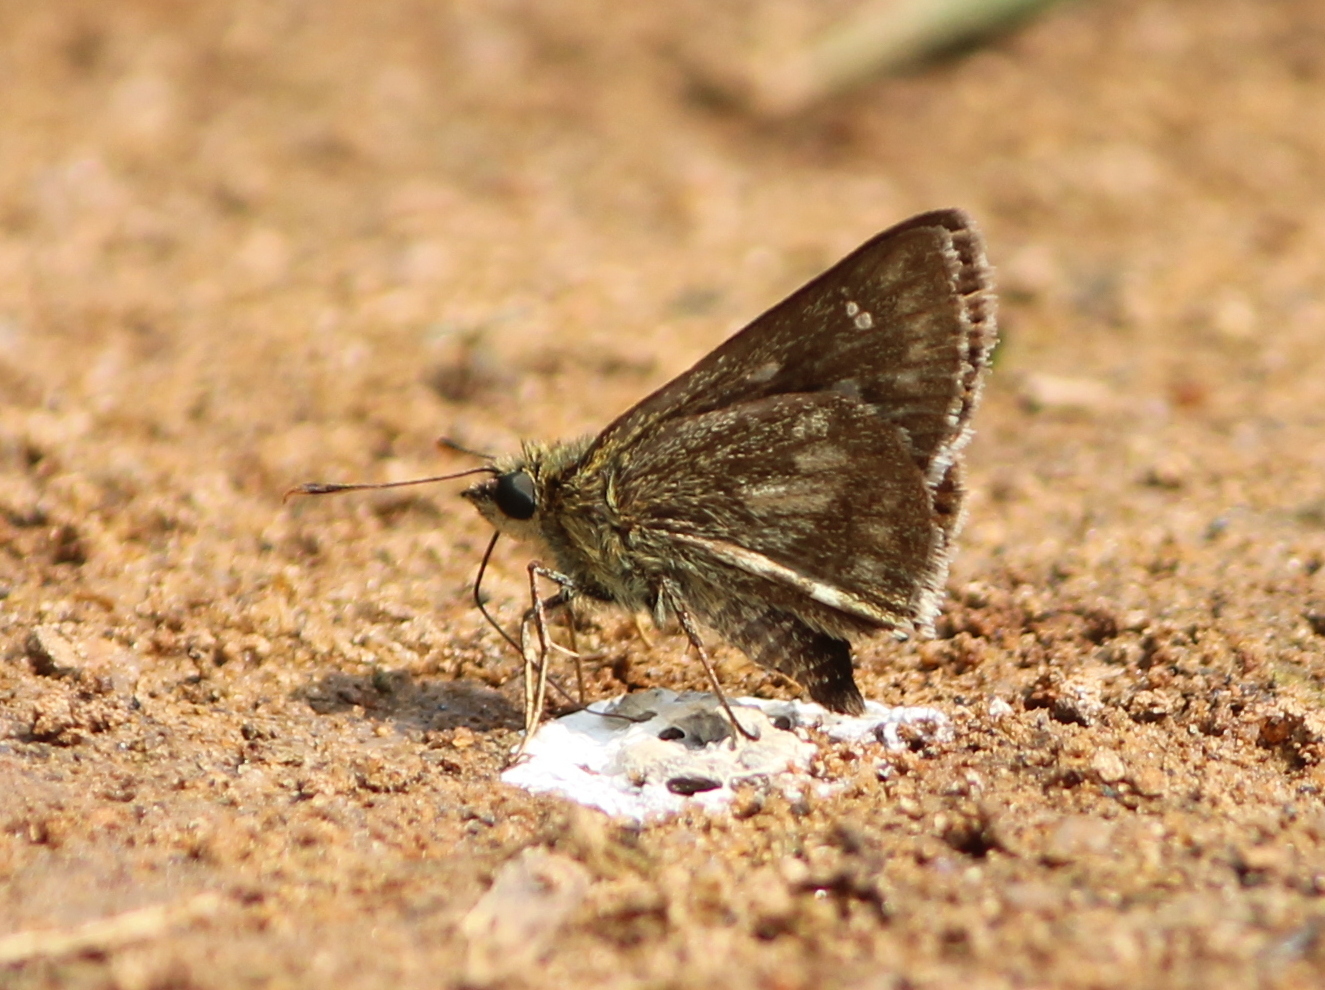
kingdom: Animalia
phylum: Arthropoda
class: Insecta
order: Lepidoptera
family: Hesperiidae
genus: Halpe
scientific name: Halpe homolea
